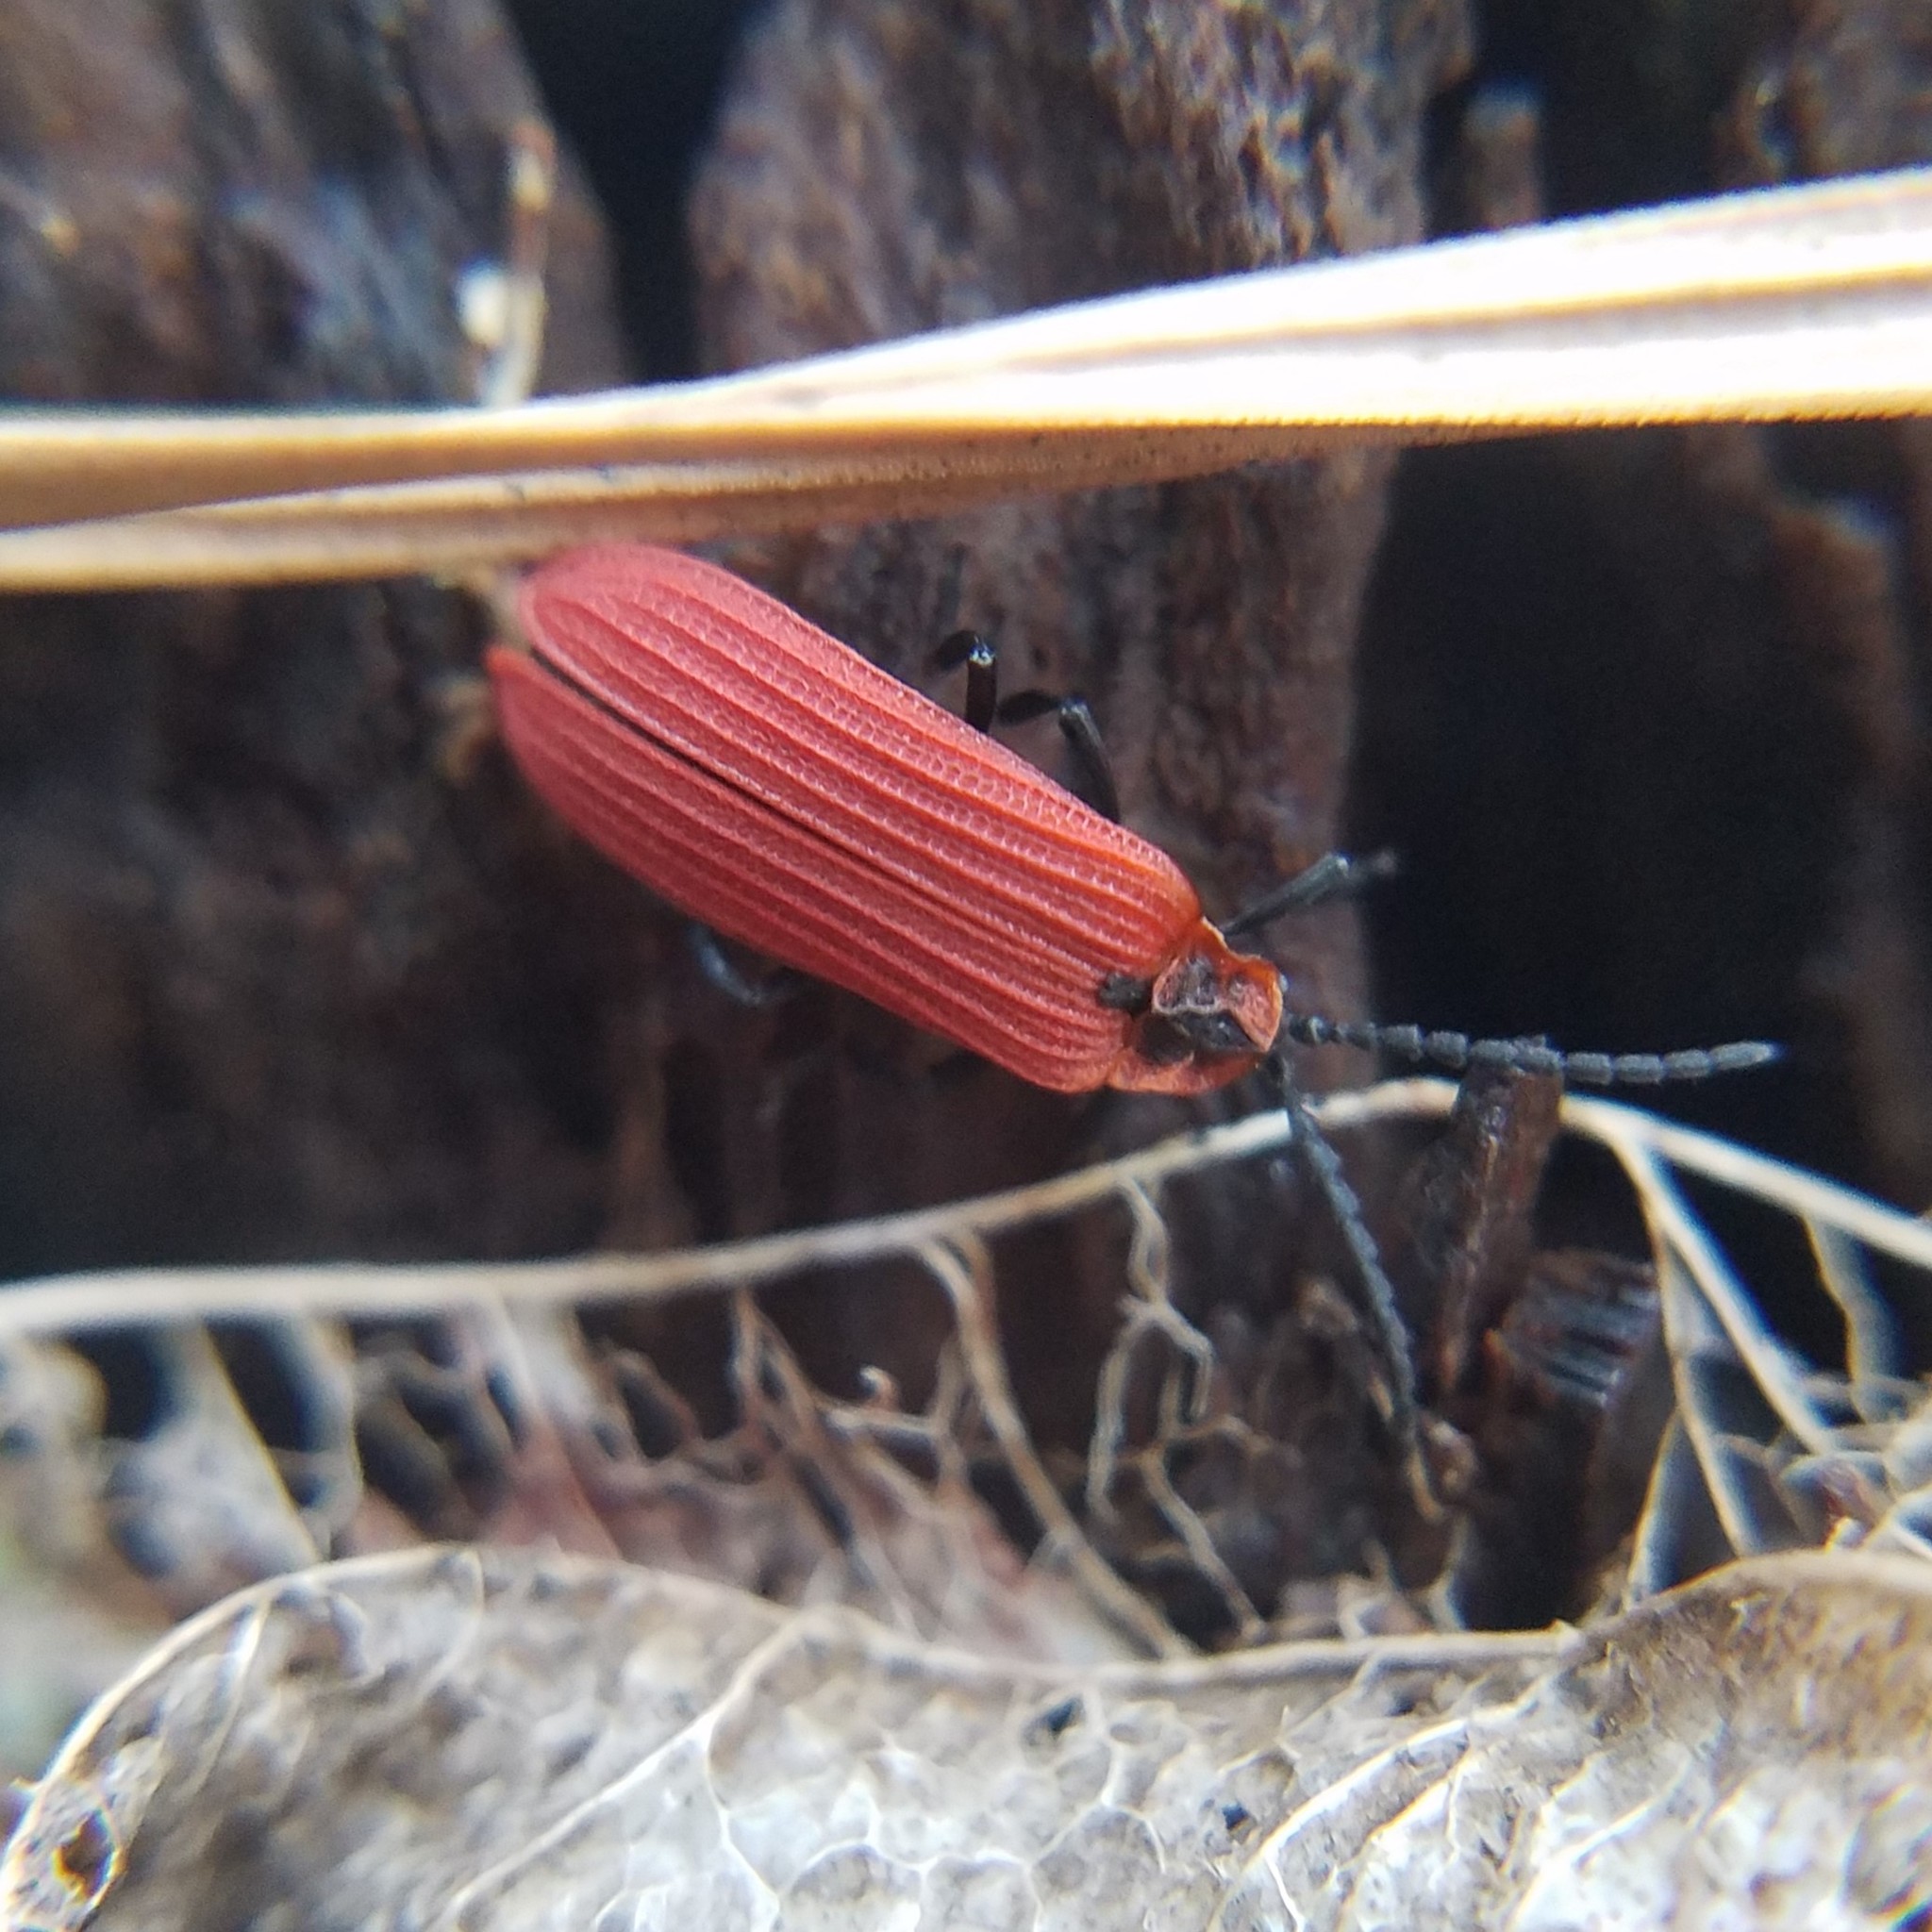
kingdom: Animalia
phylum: Arthropoda
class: Insecta
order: Coleoptera
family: Lycidae
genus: Dictyoptera
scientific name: Dictyoptera aurora
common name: Golden net-winged beetle
